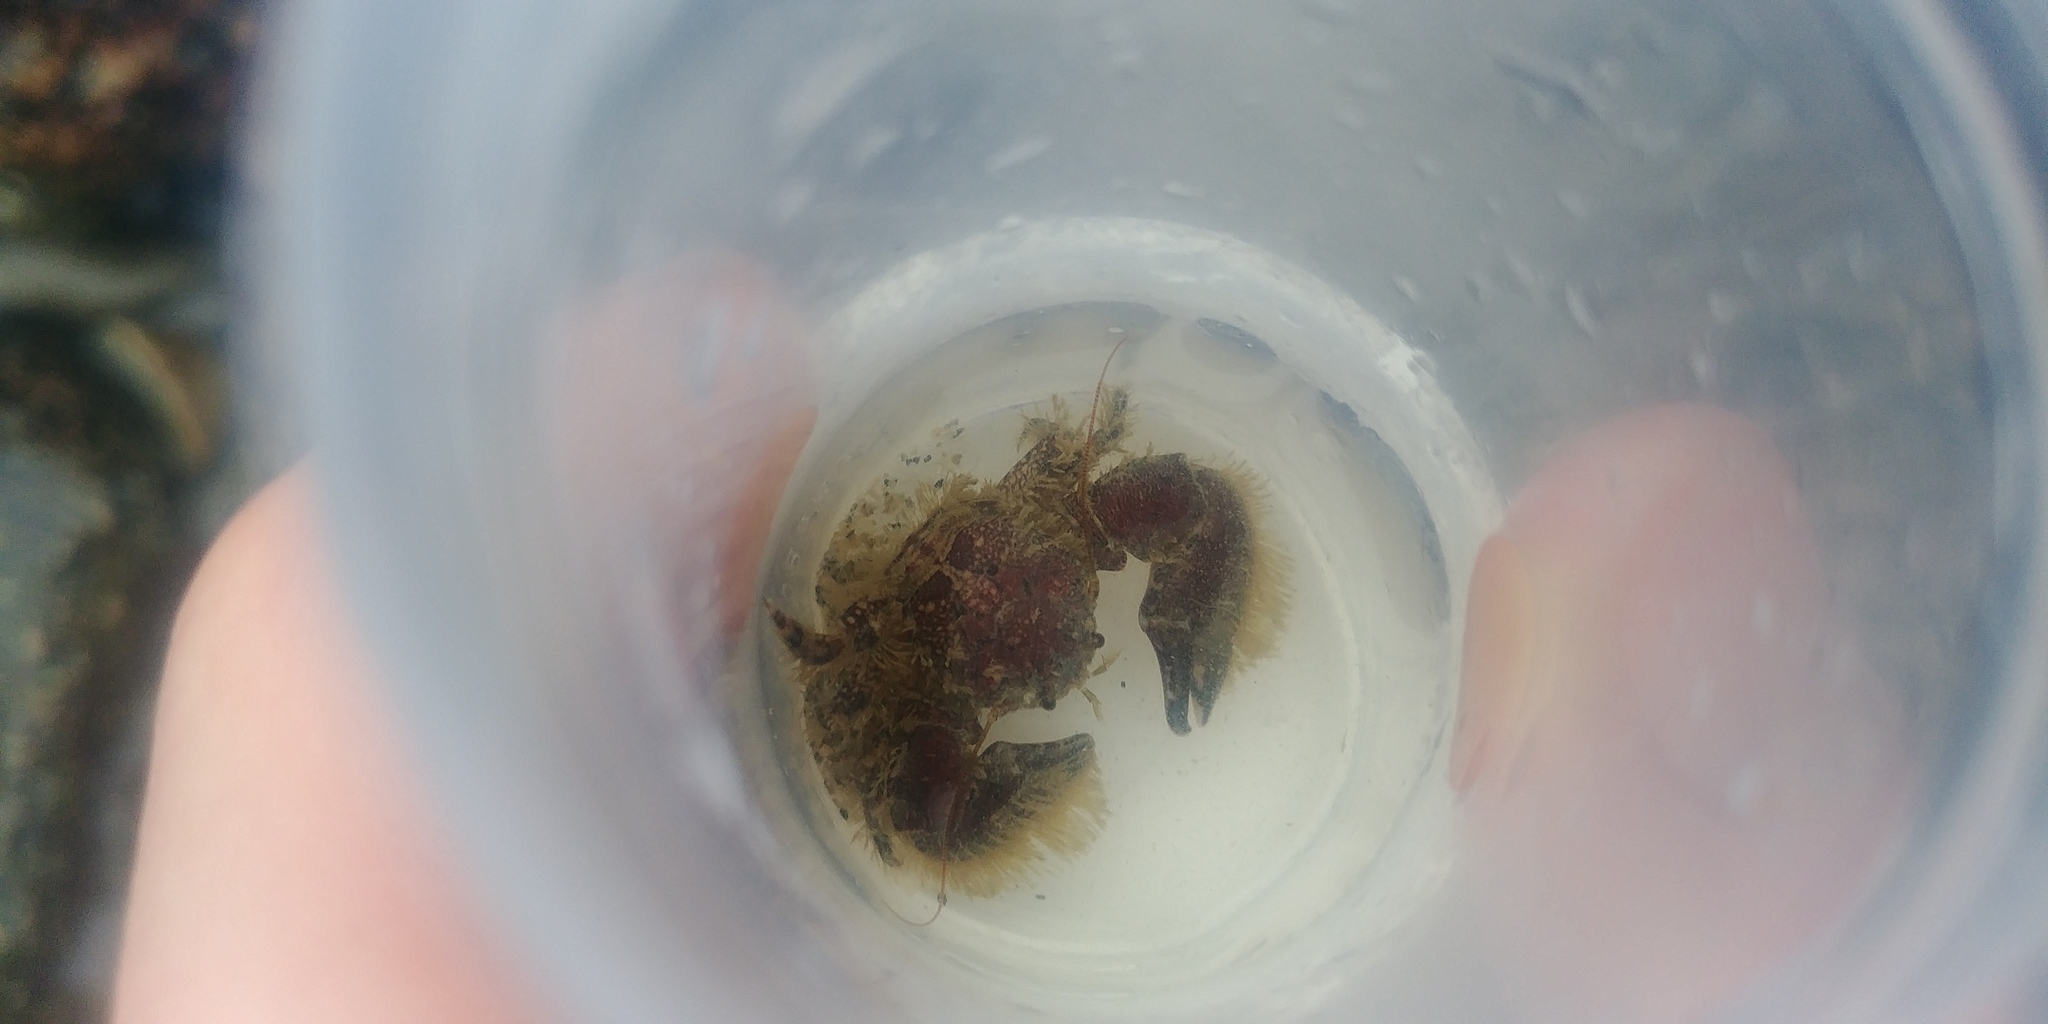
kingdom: Animalia
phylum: Arthropoda
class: Malacostraca
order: Decapoda
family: Porcellanidae
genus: Porcellana
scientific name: Porcellana platycheles
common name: Porcelain crab
